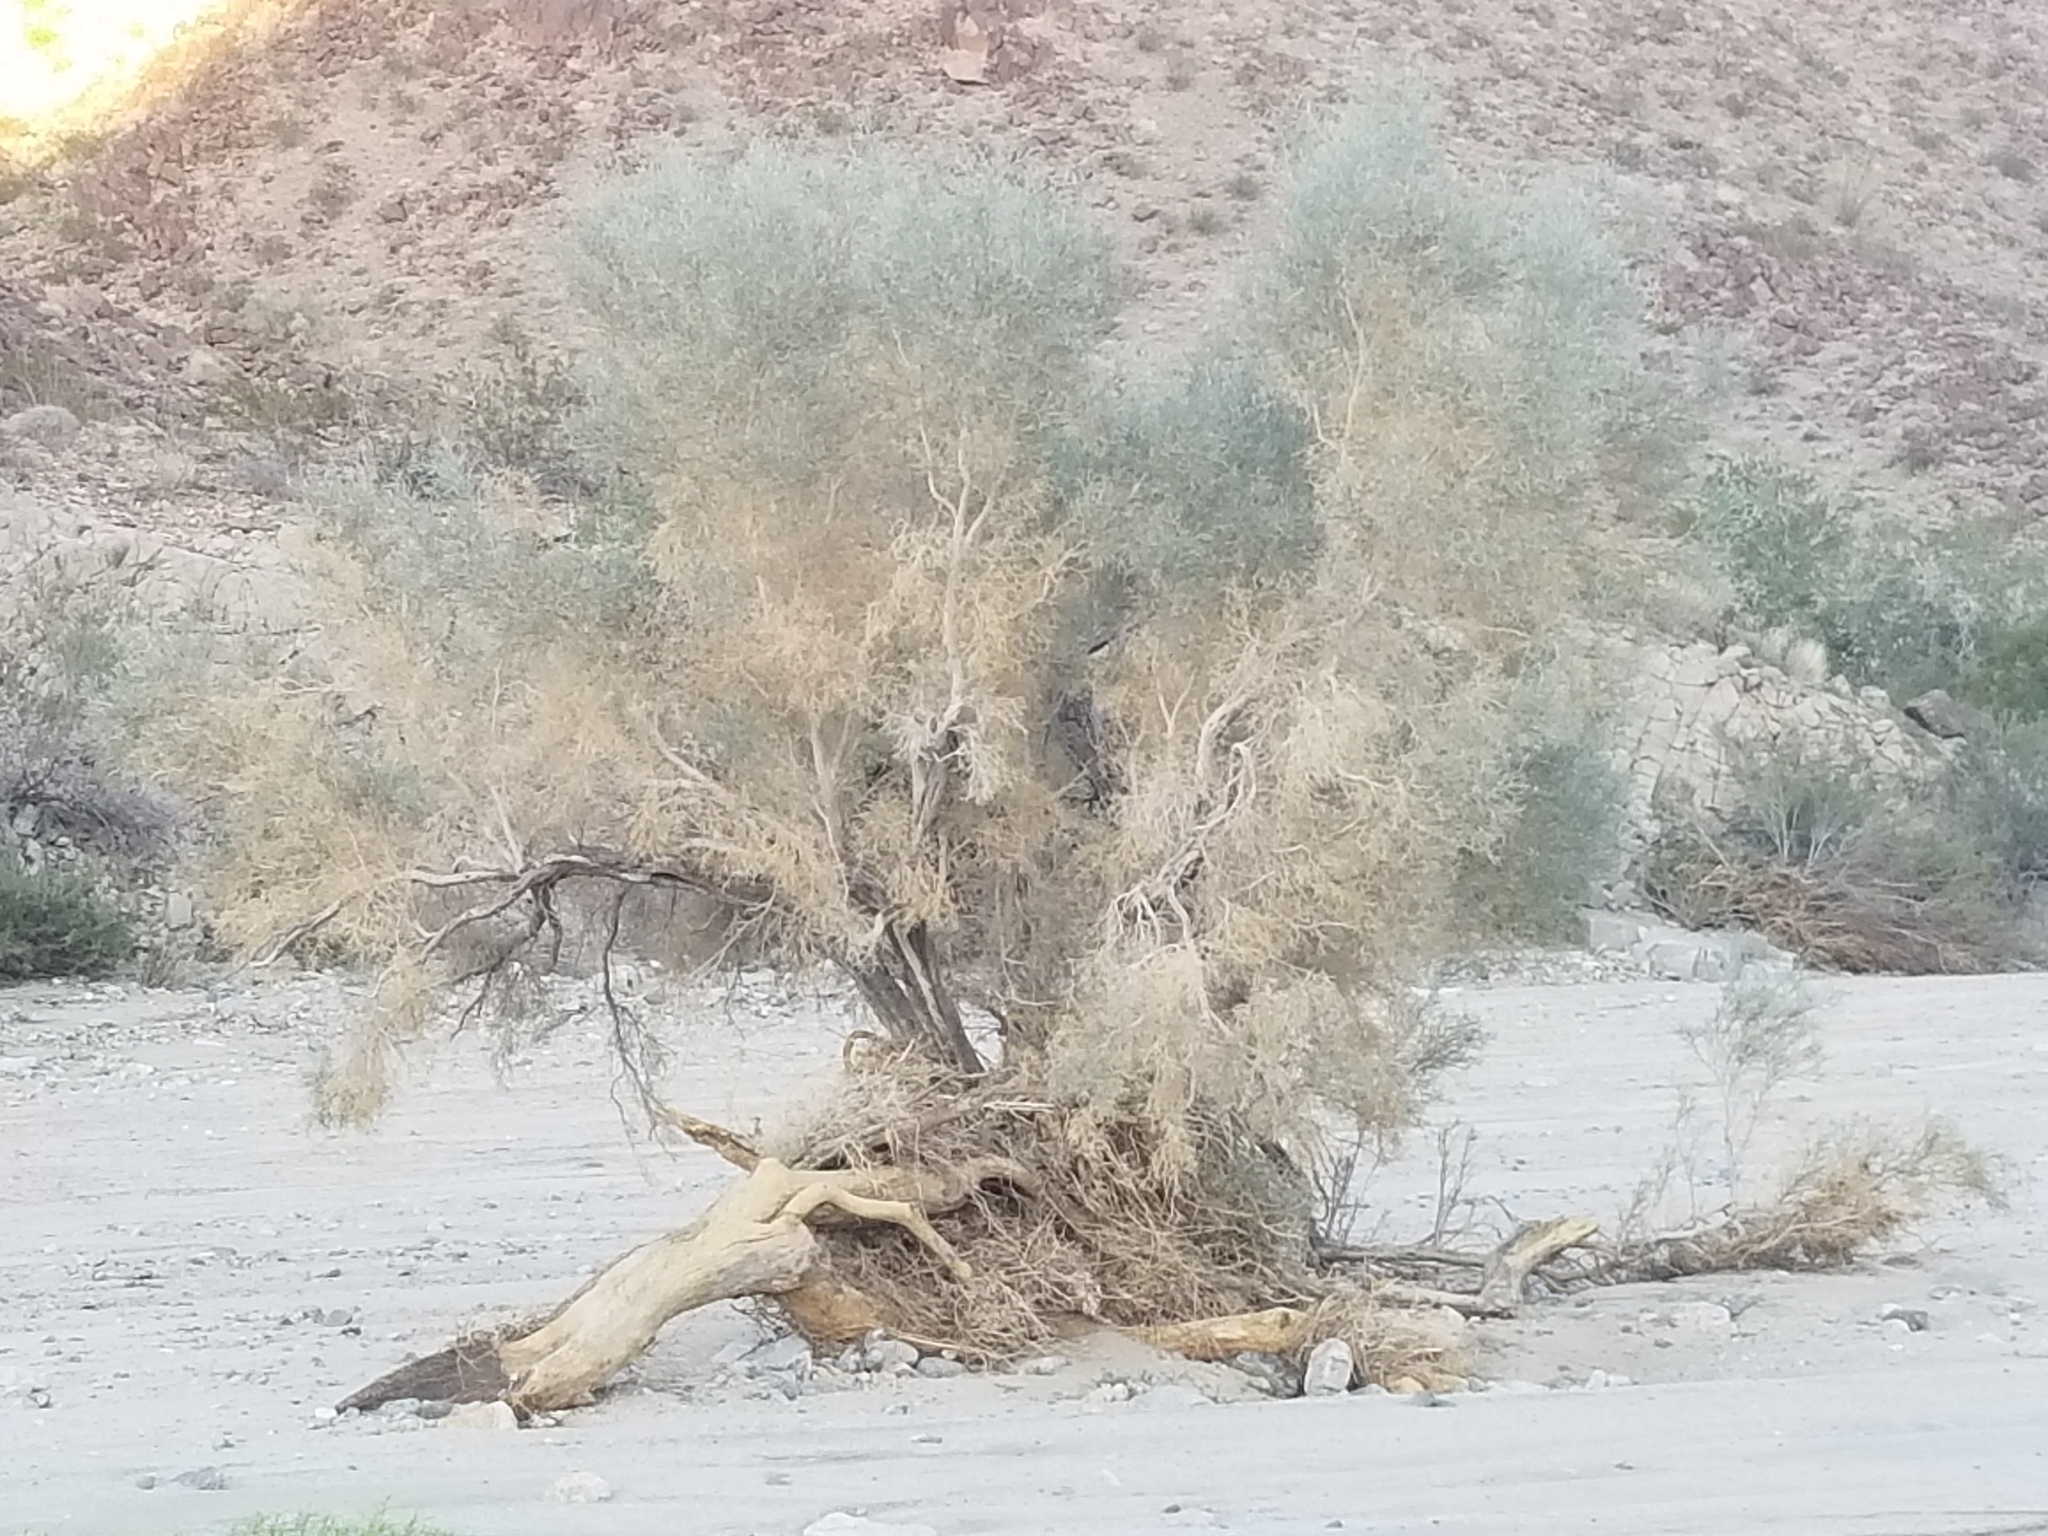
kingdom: Plantae
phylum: Tracheophyta
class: Magnoliopsida
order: Fabales
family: Fabaceae
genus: Psorothamnus
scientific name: Psorothamnus spinosus
